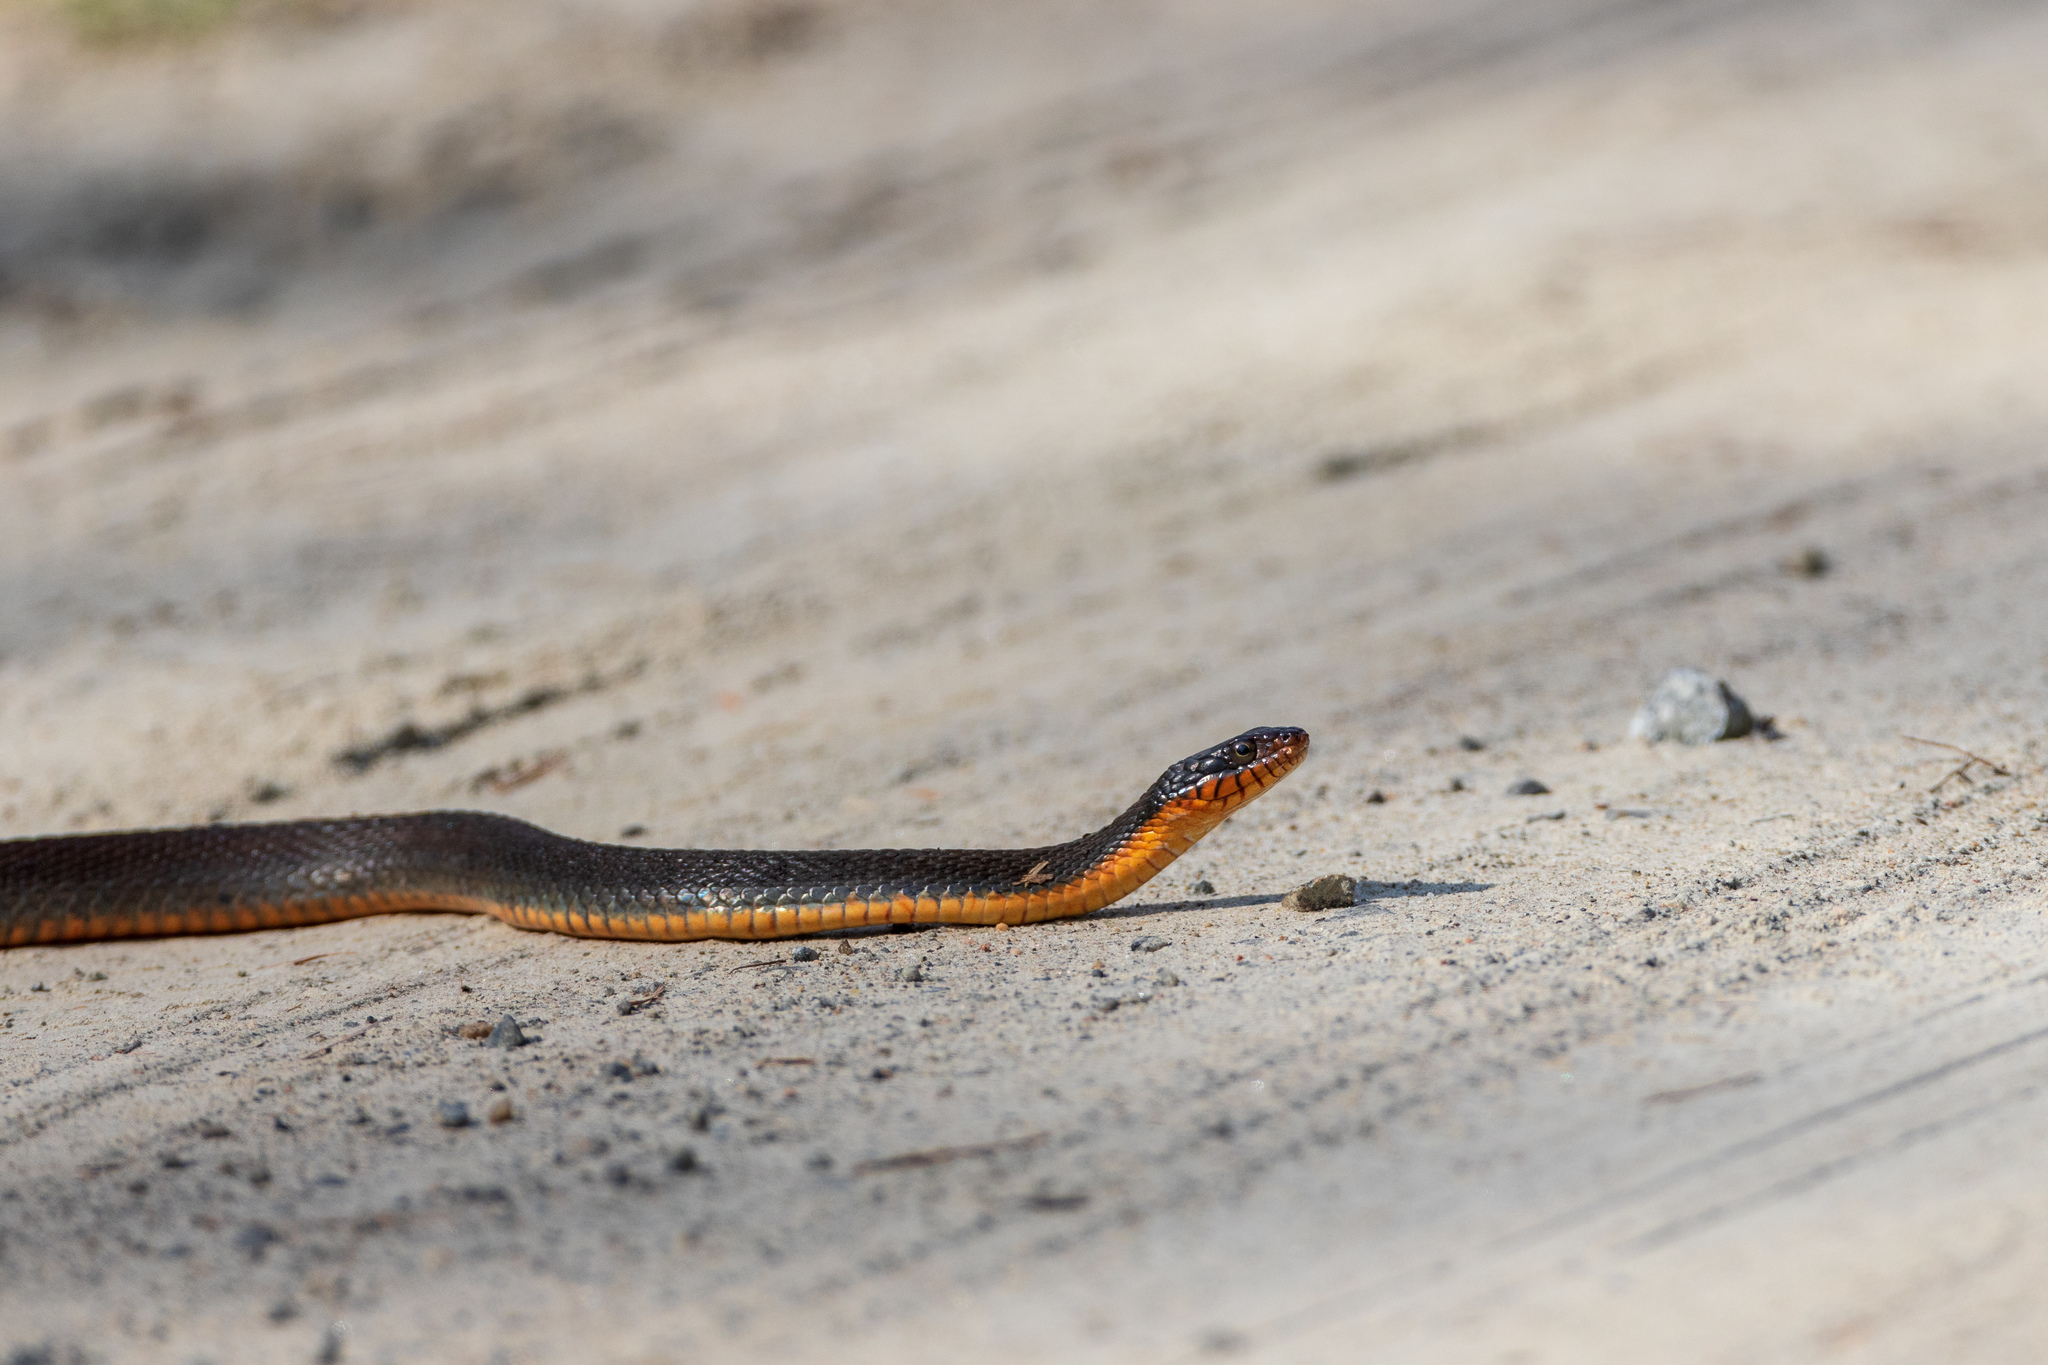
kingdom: Animalia
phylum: Chordata
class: Squamata
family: Colubridae
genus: Nerodia
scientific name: Nerodia erythrogaster
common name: Plainbelly water snake
